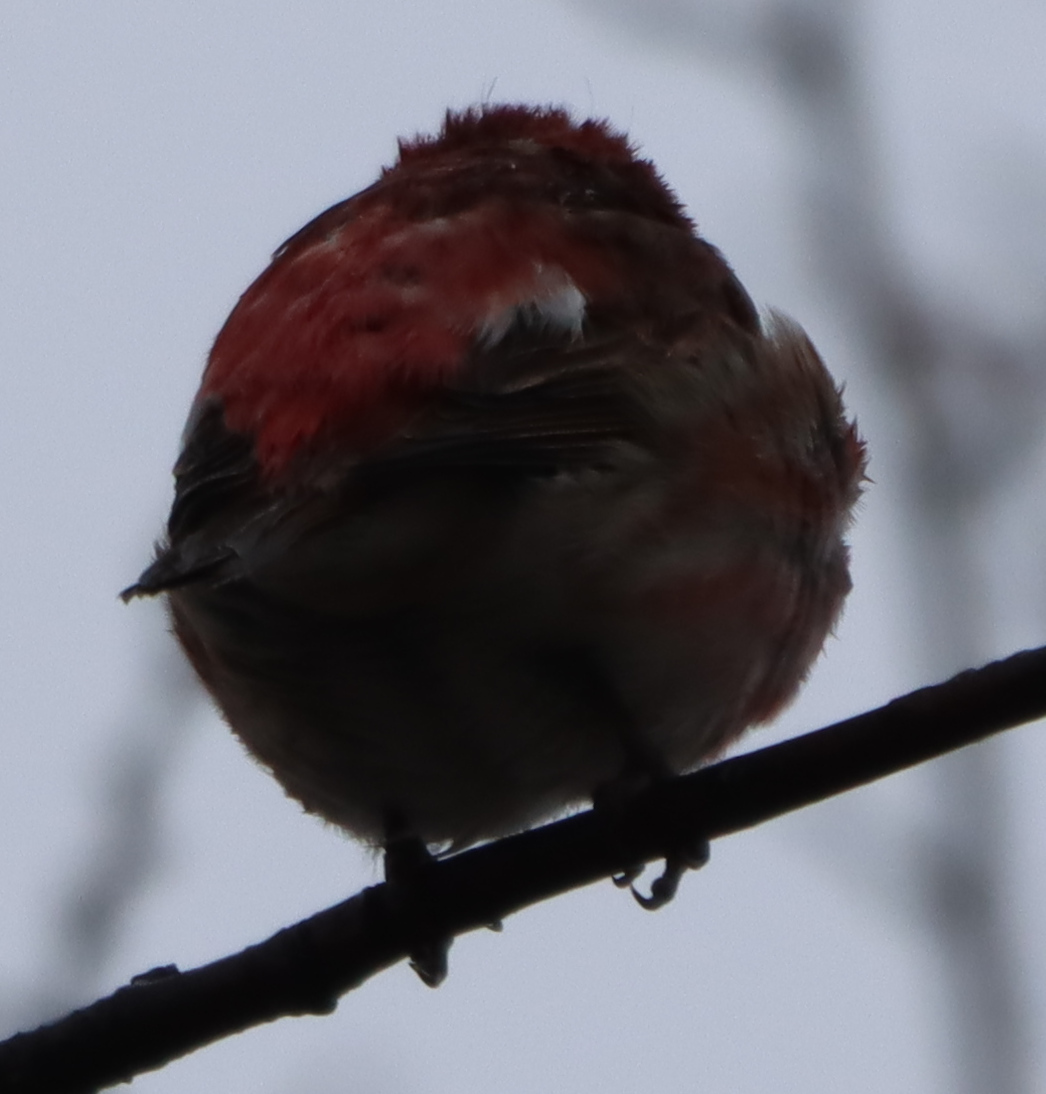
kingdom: Animalia
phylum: Chordata
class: Aves
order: Passeriformes
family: Fringillidae
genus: Haemorhous
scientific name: Haemorhous purpureus
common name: Purple finch
